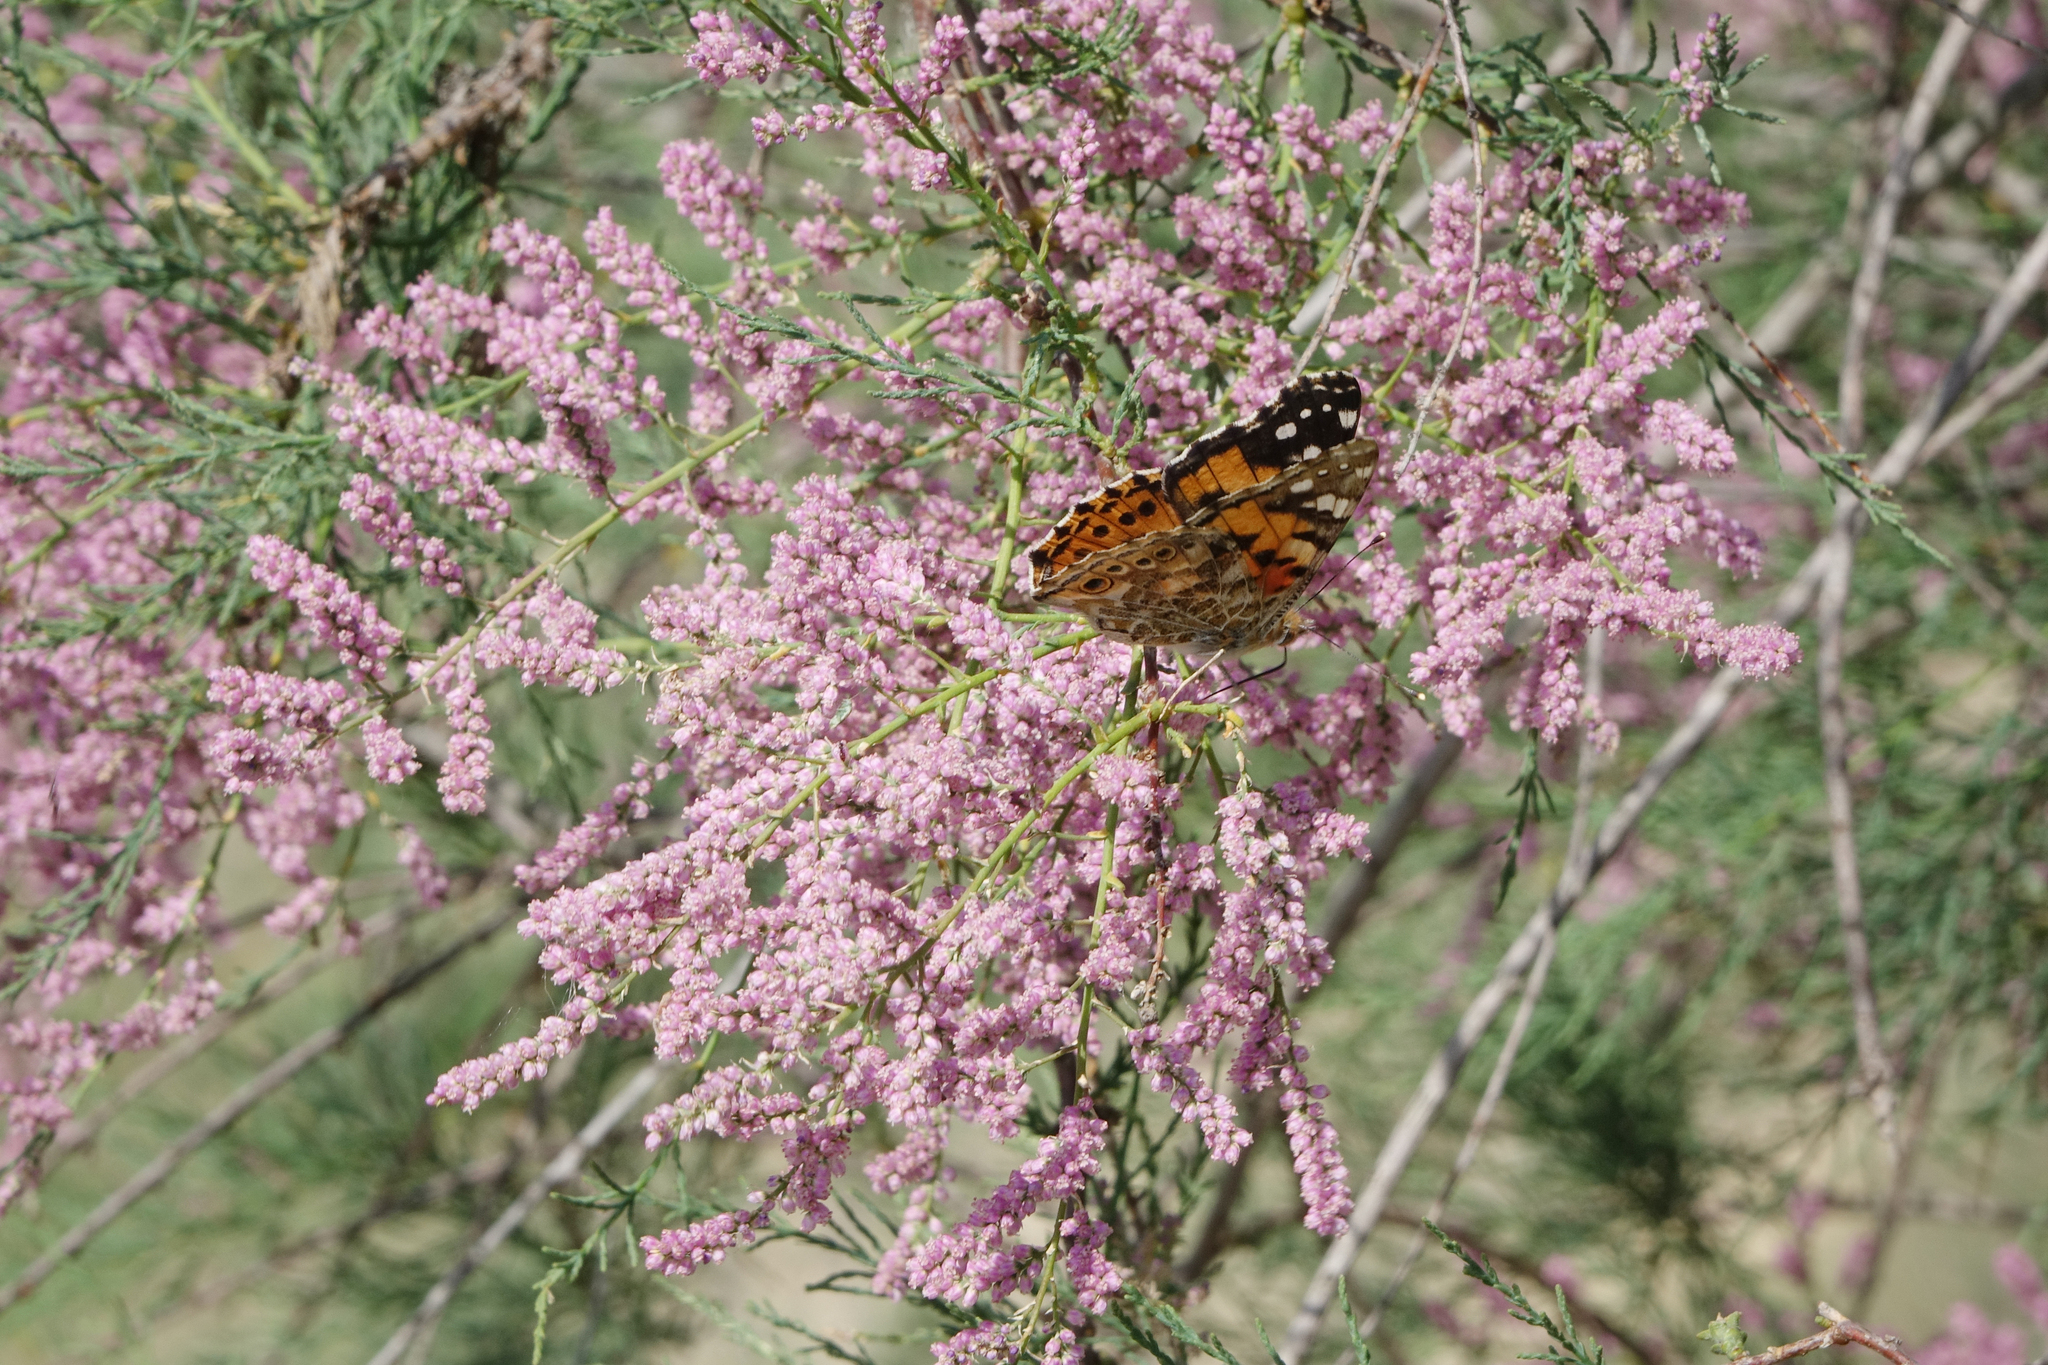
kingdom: Animalia
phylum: Arthropoda
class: Insecta
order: Lepidoptera
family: Nymphalidae
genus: Vanessa
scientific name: Vanessa cardui
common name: Painted lady
